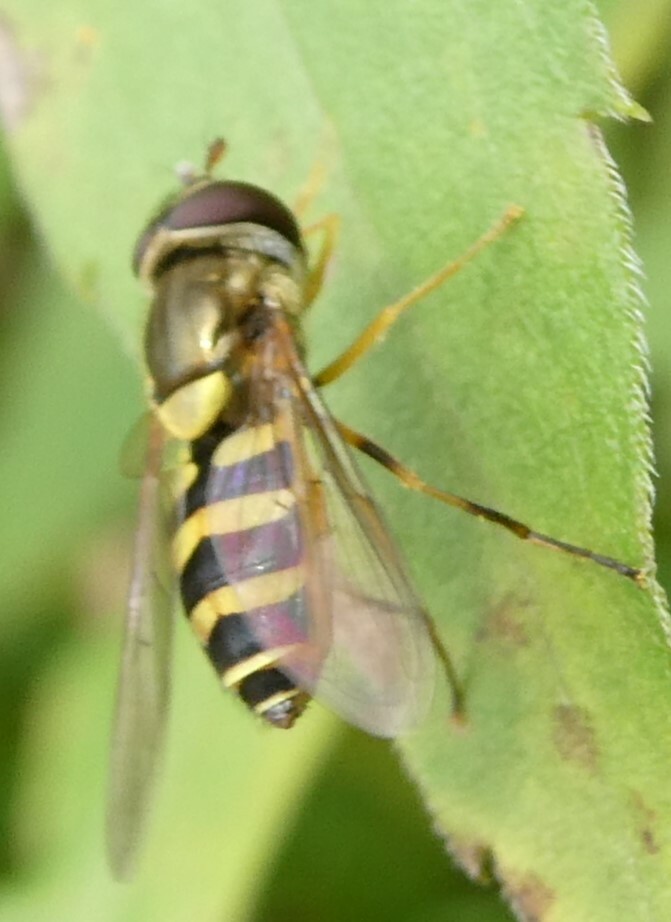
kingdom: Animalia
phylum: Arthropoda
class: Insecta
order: Diptera
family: Syrphidae
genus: Syrphus
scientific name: Syrphus rectus
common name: Yellow-legged flower fly
